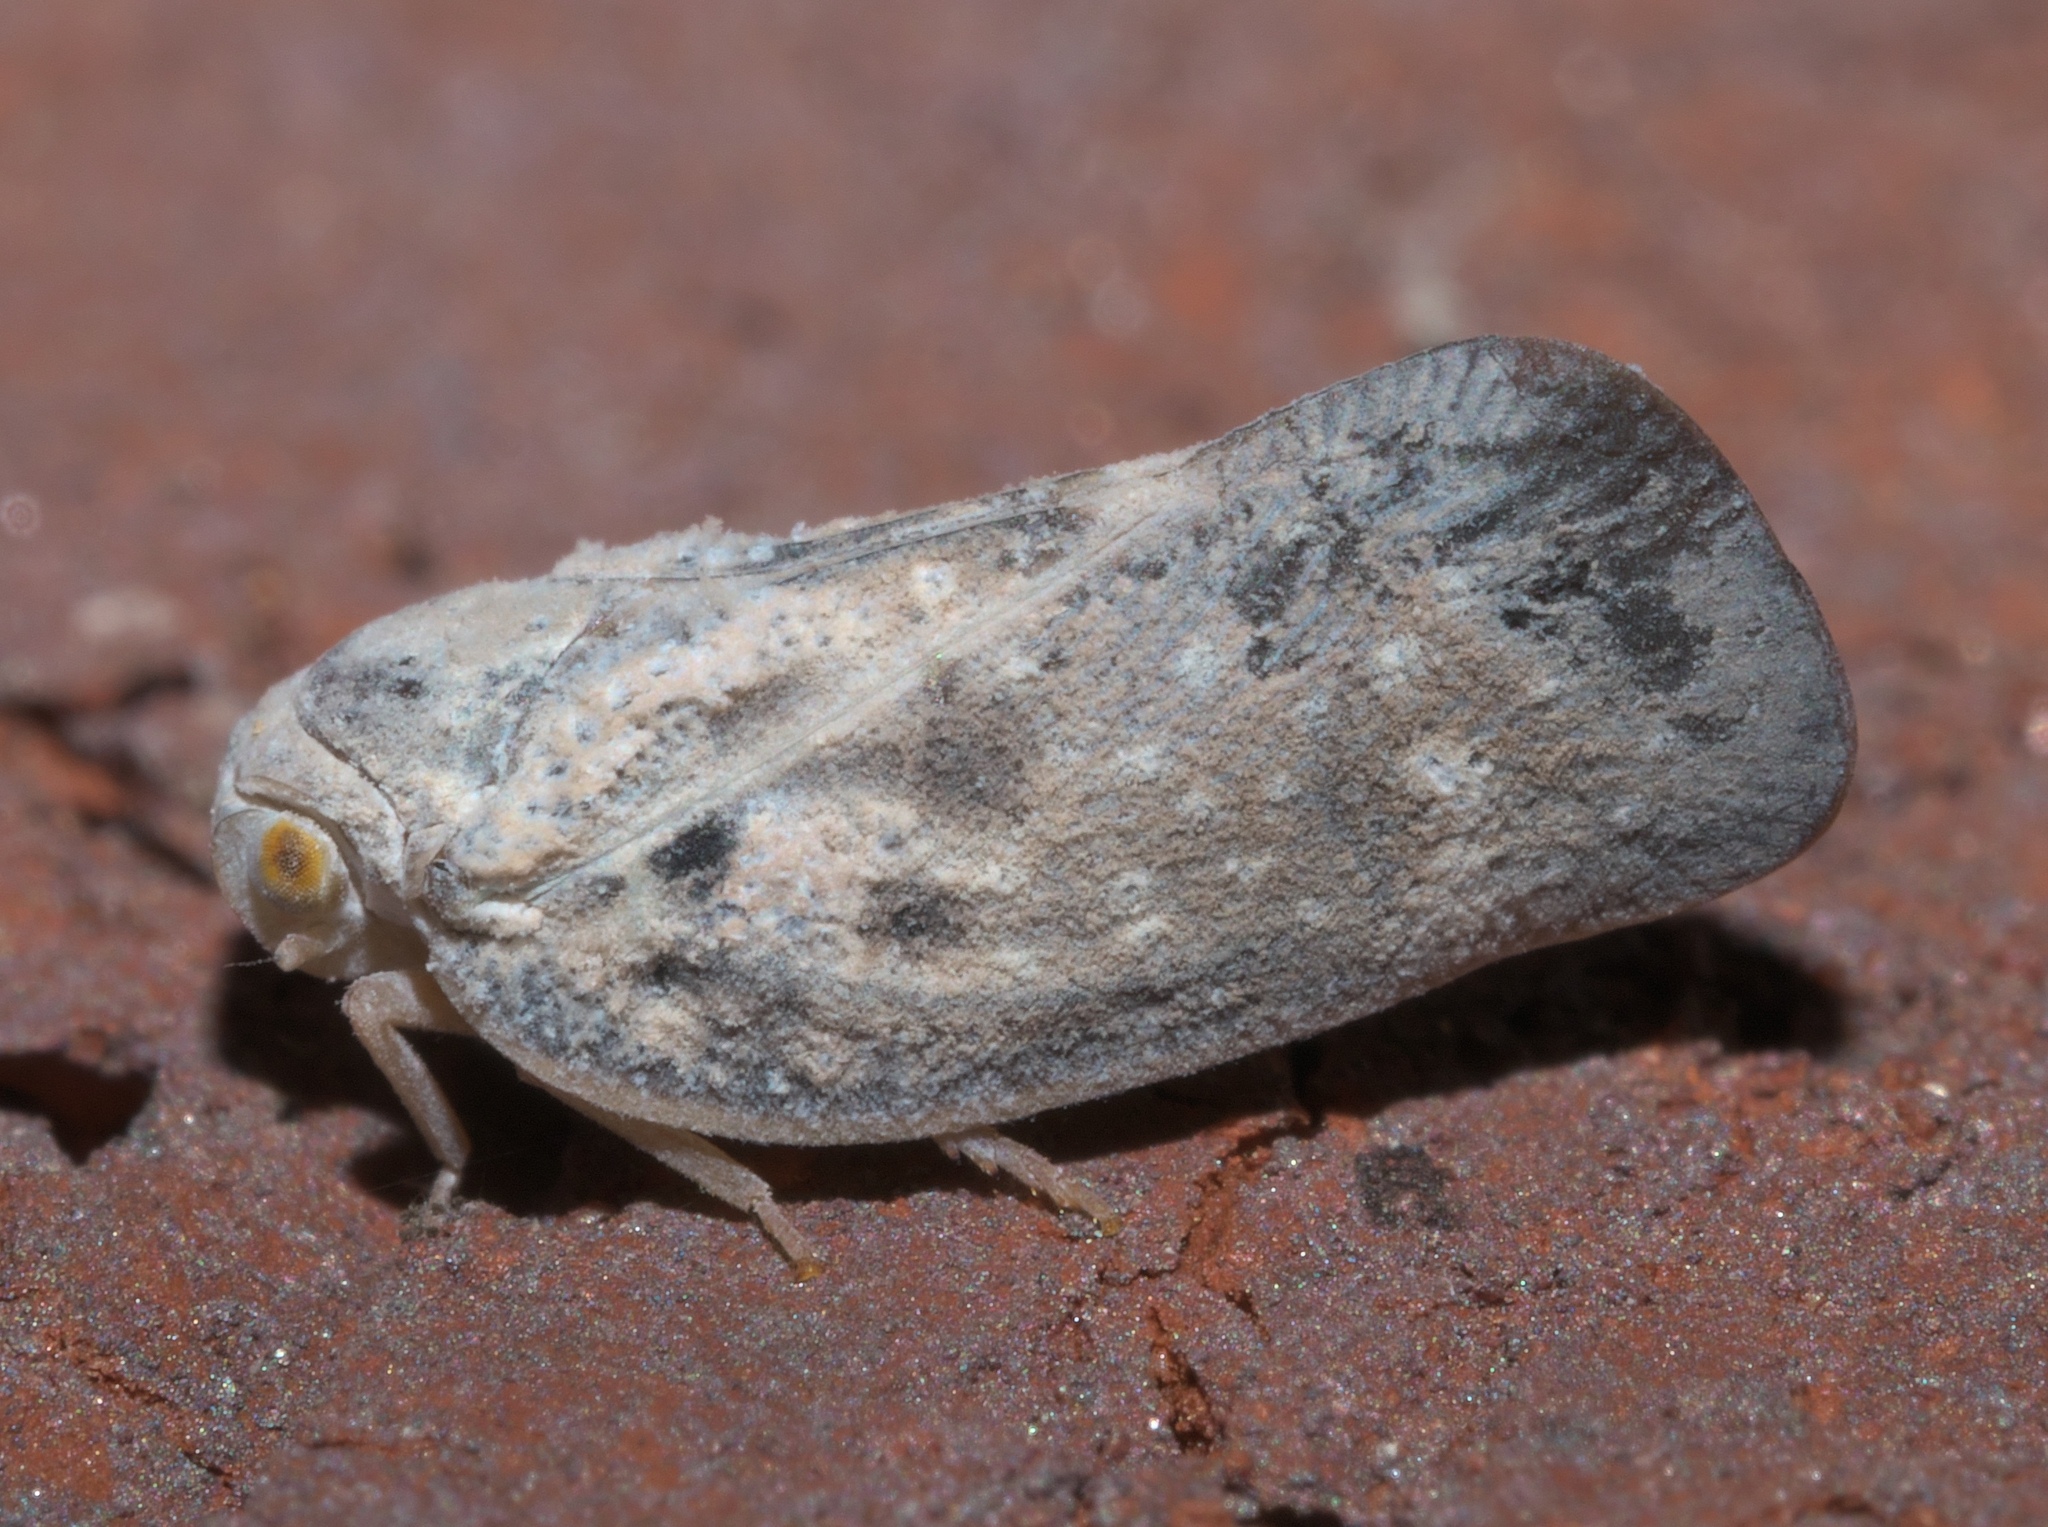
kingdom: Animalia
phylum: Arthropoda
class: Insecta
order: Hemiptera
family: Flatidae
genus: Metcalfa
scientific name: Metcalfa pruinosa
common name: Citrus flatid planthopper
